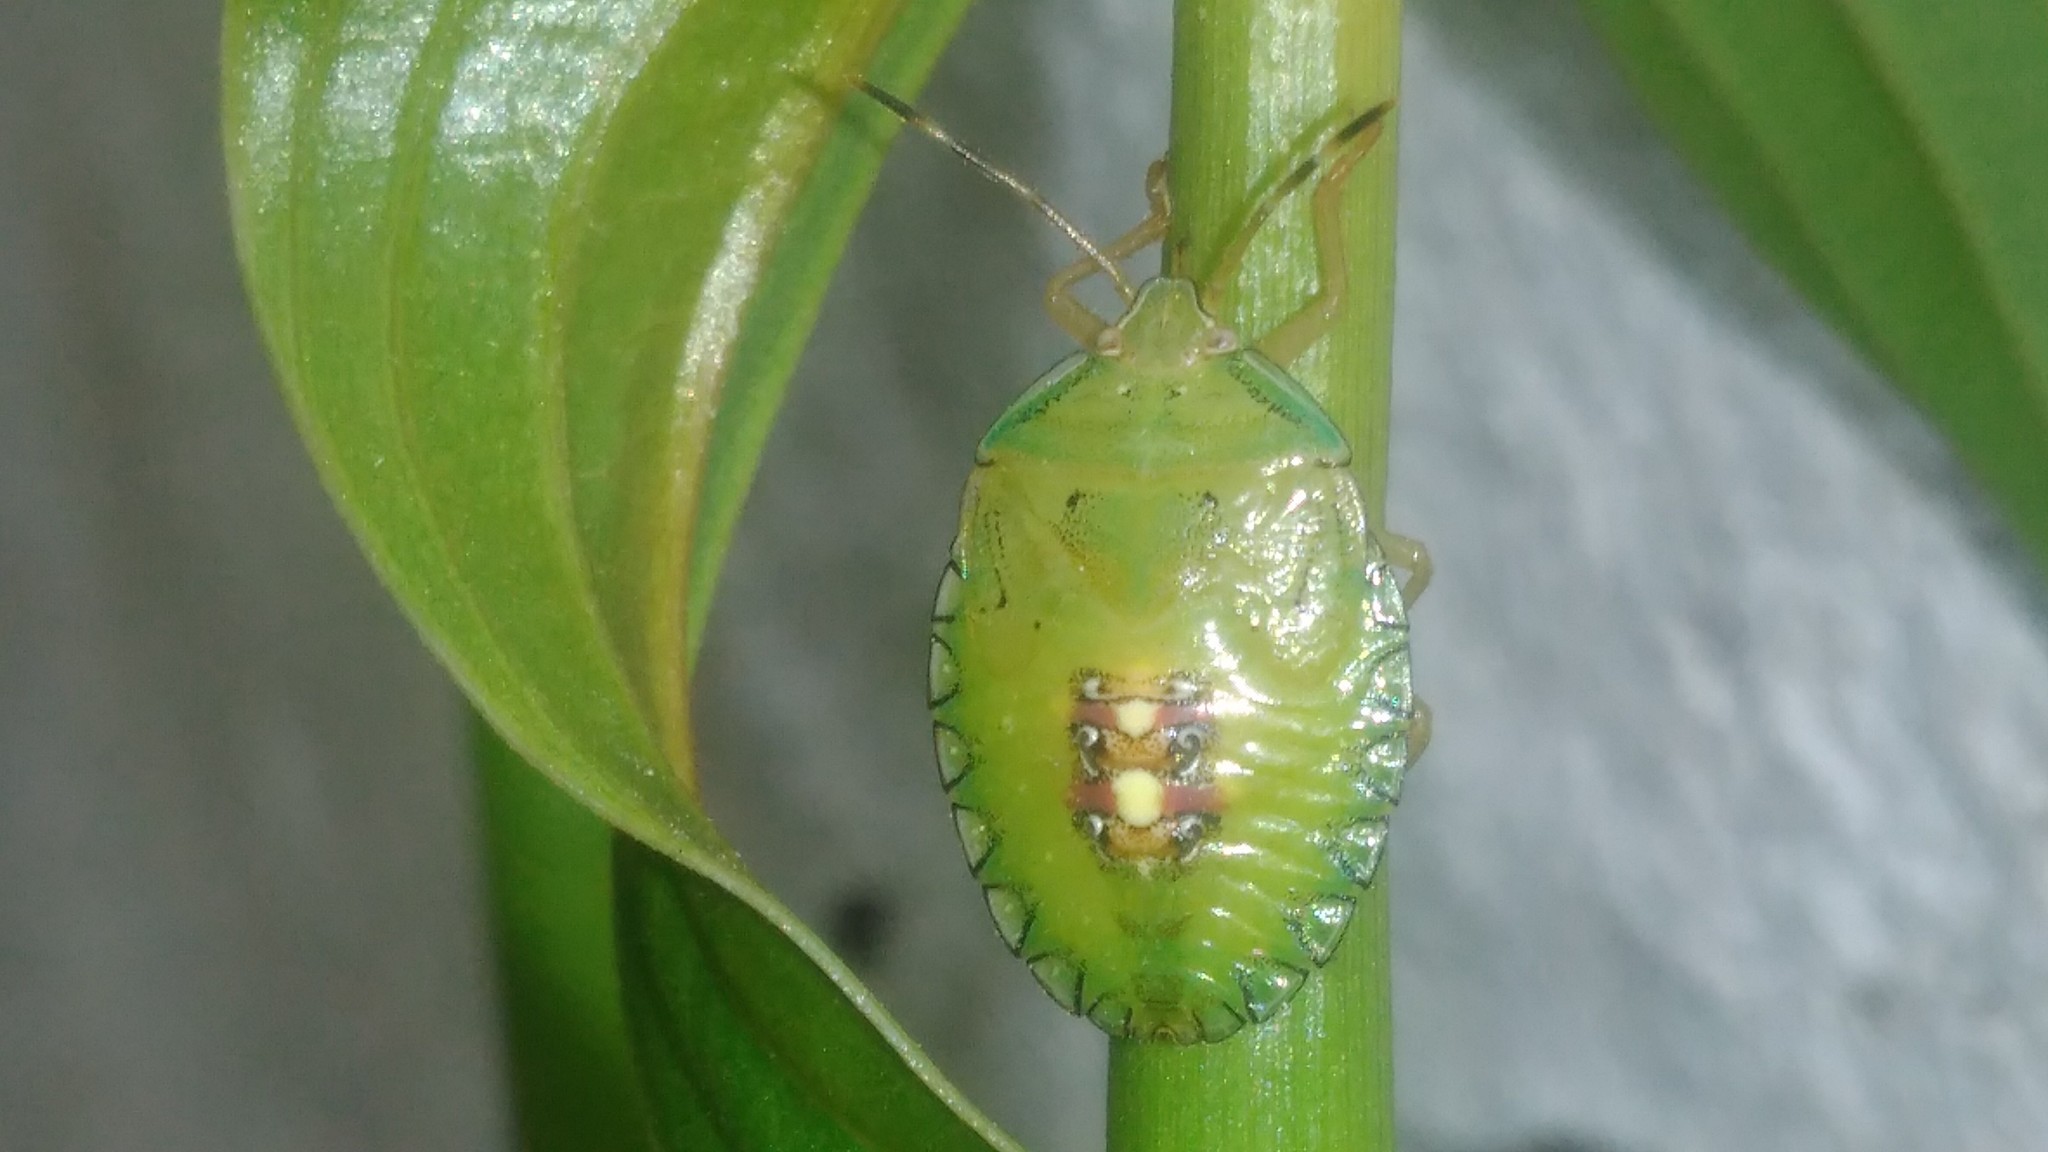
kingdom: Animalia
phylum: Arthropoda
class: Insecta
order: Hemiptera
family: Pentatomidae
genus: Edessa
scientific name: Edessa meditabunda
